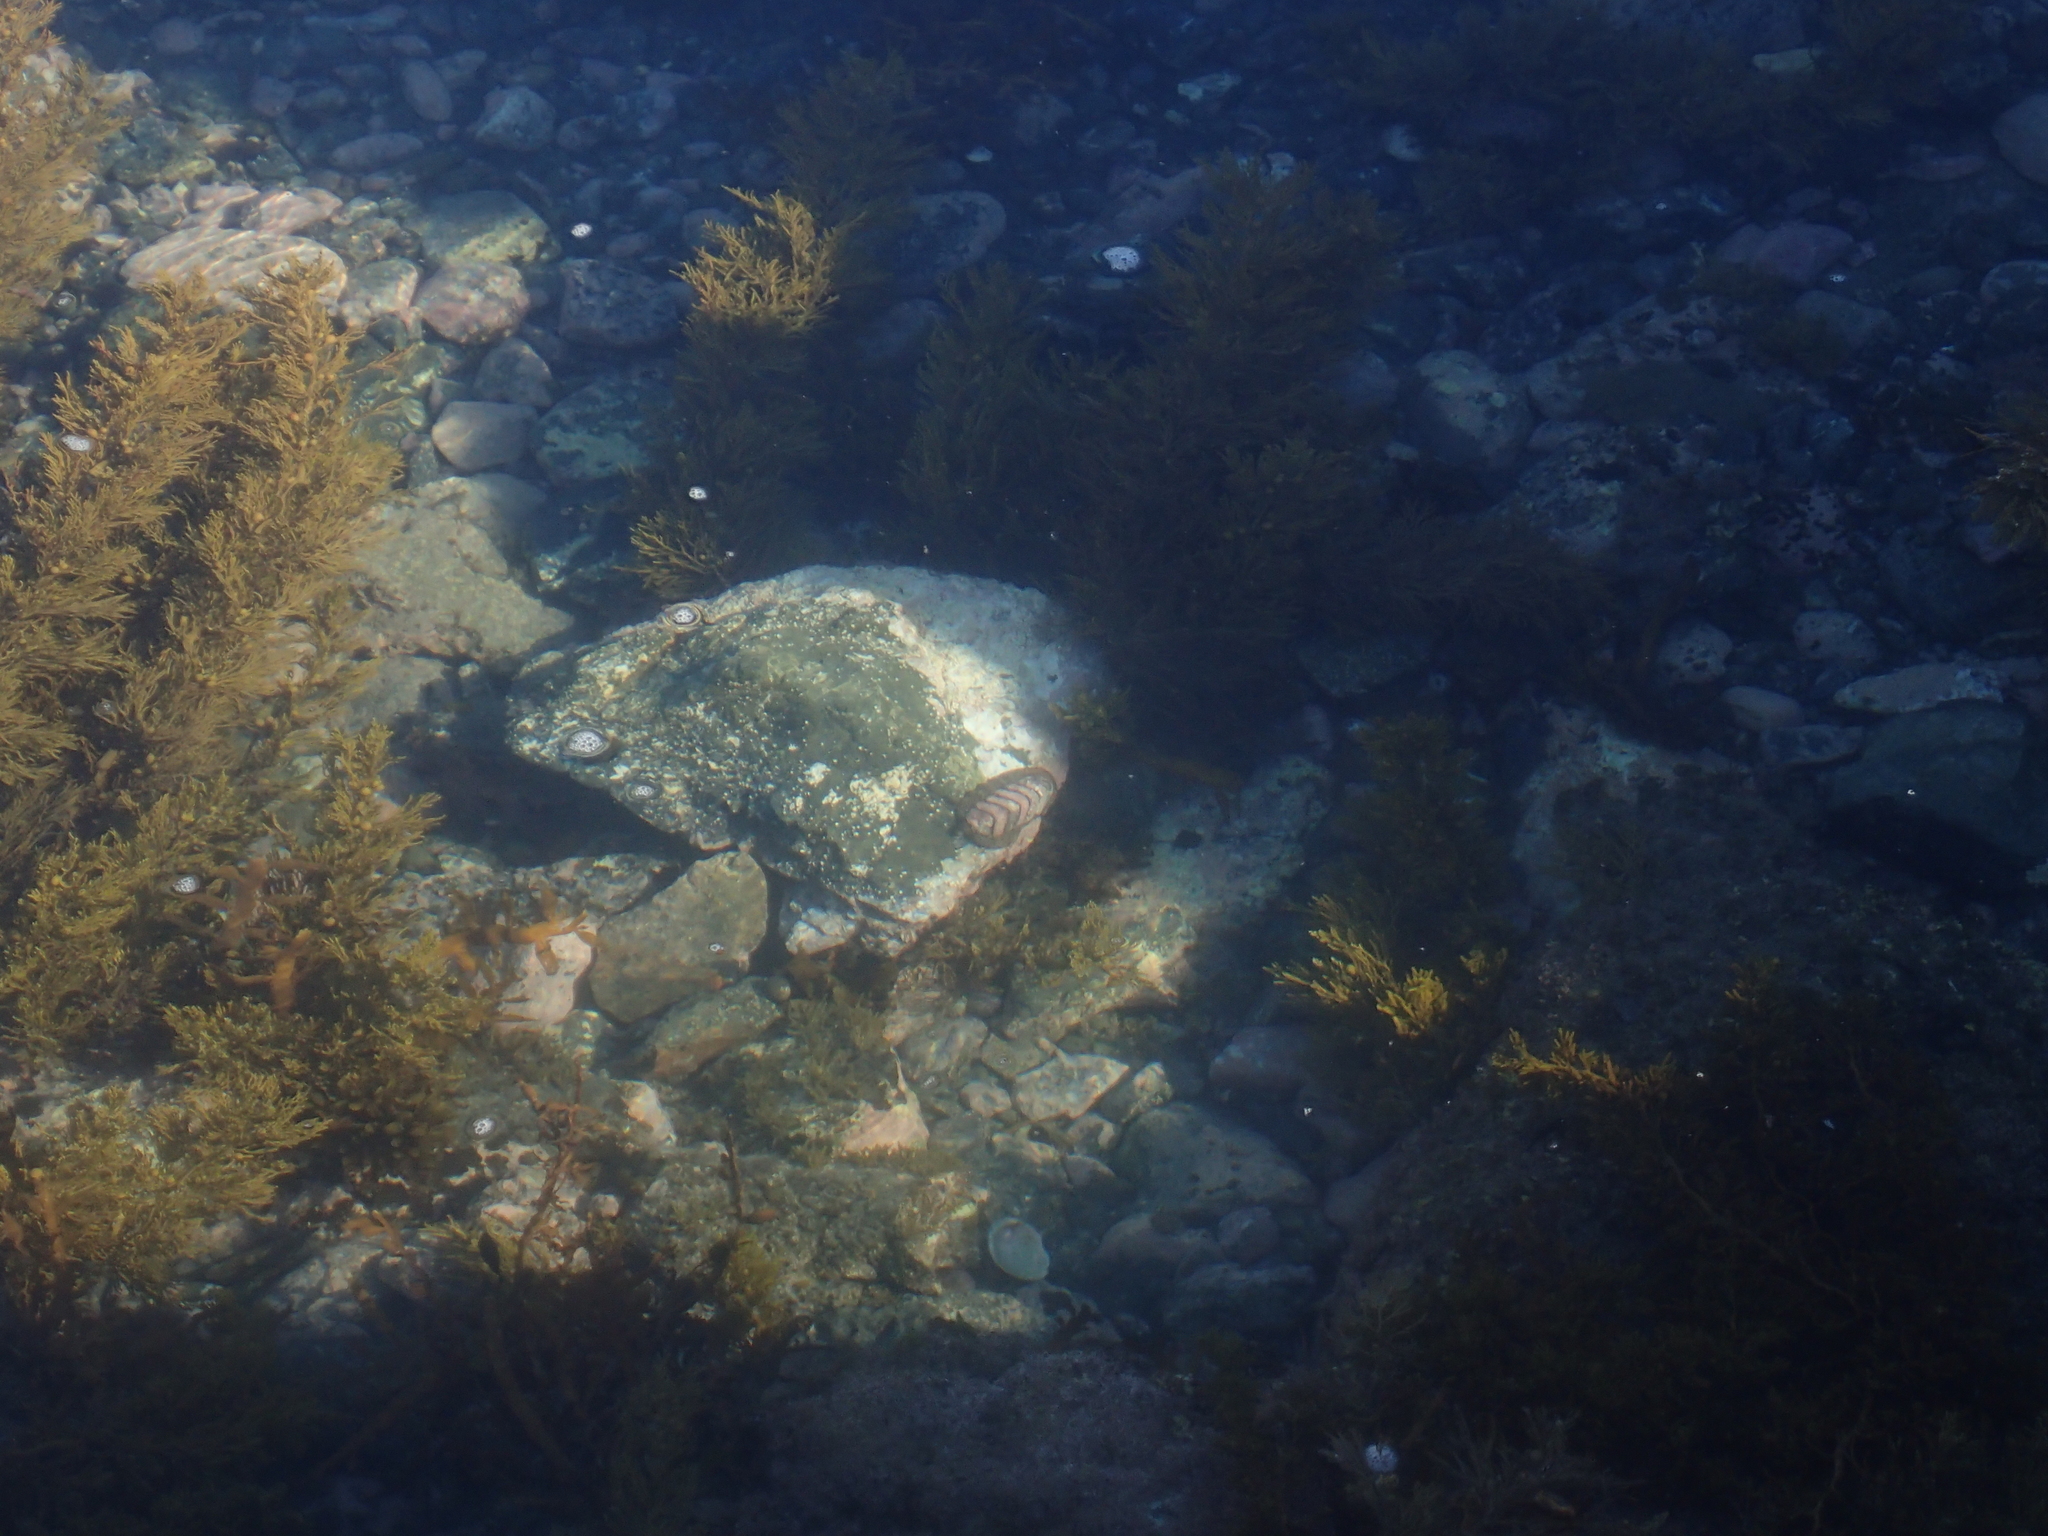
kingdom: Animalia
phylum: Mollusca
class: Polyplacophora
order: Callochitonida
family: Callochitonidae
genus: Eudoxochiton
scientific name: Eudoxochiton nobilis
